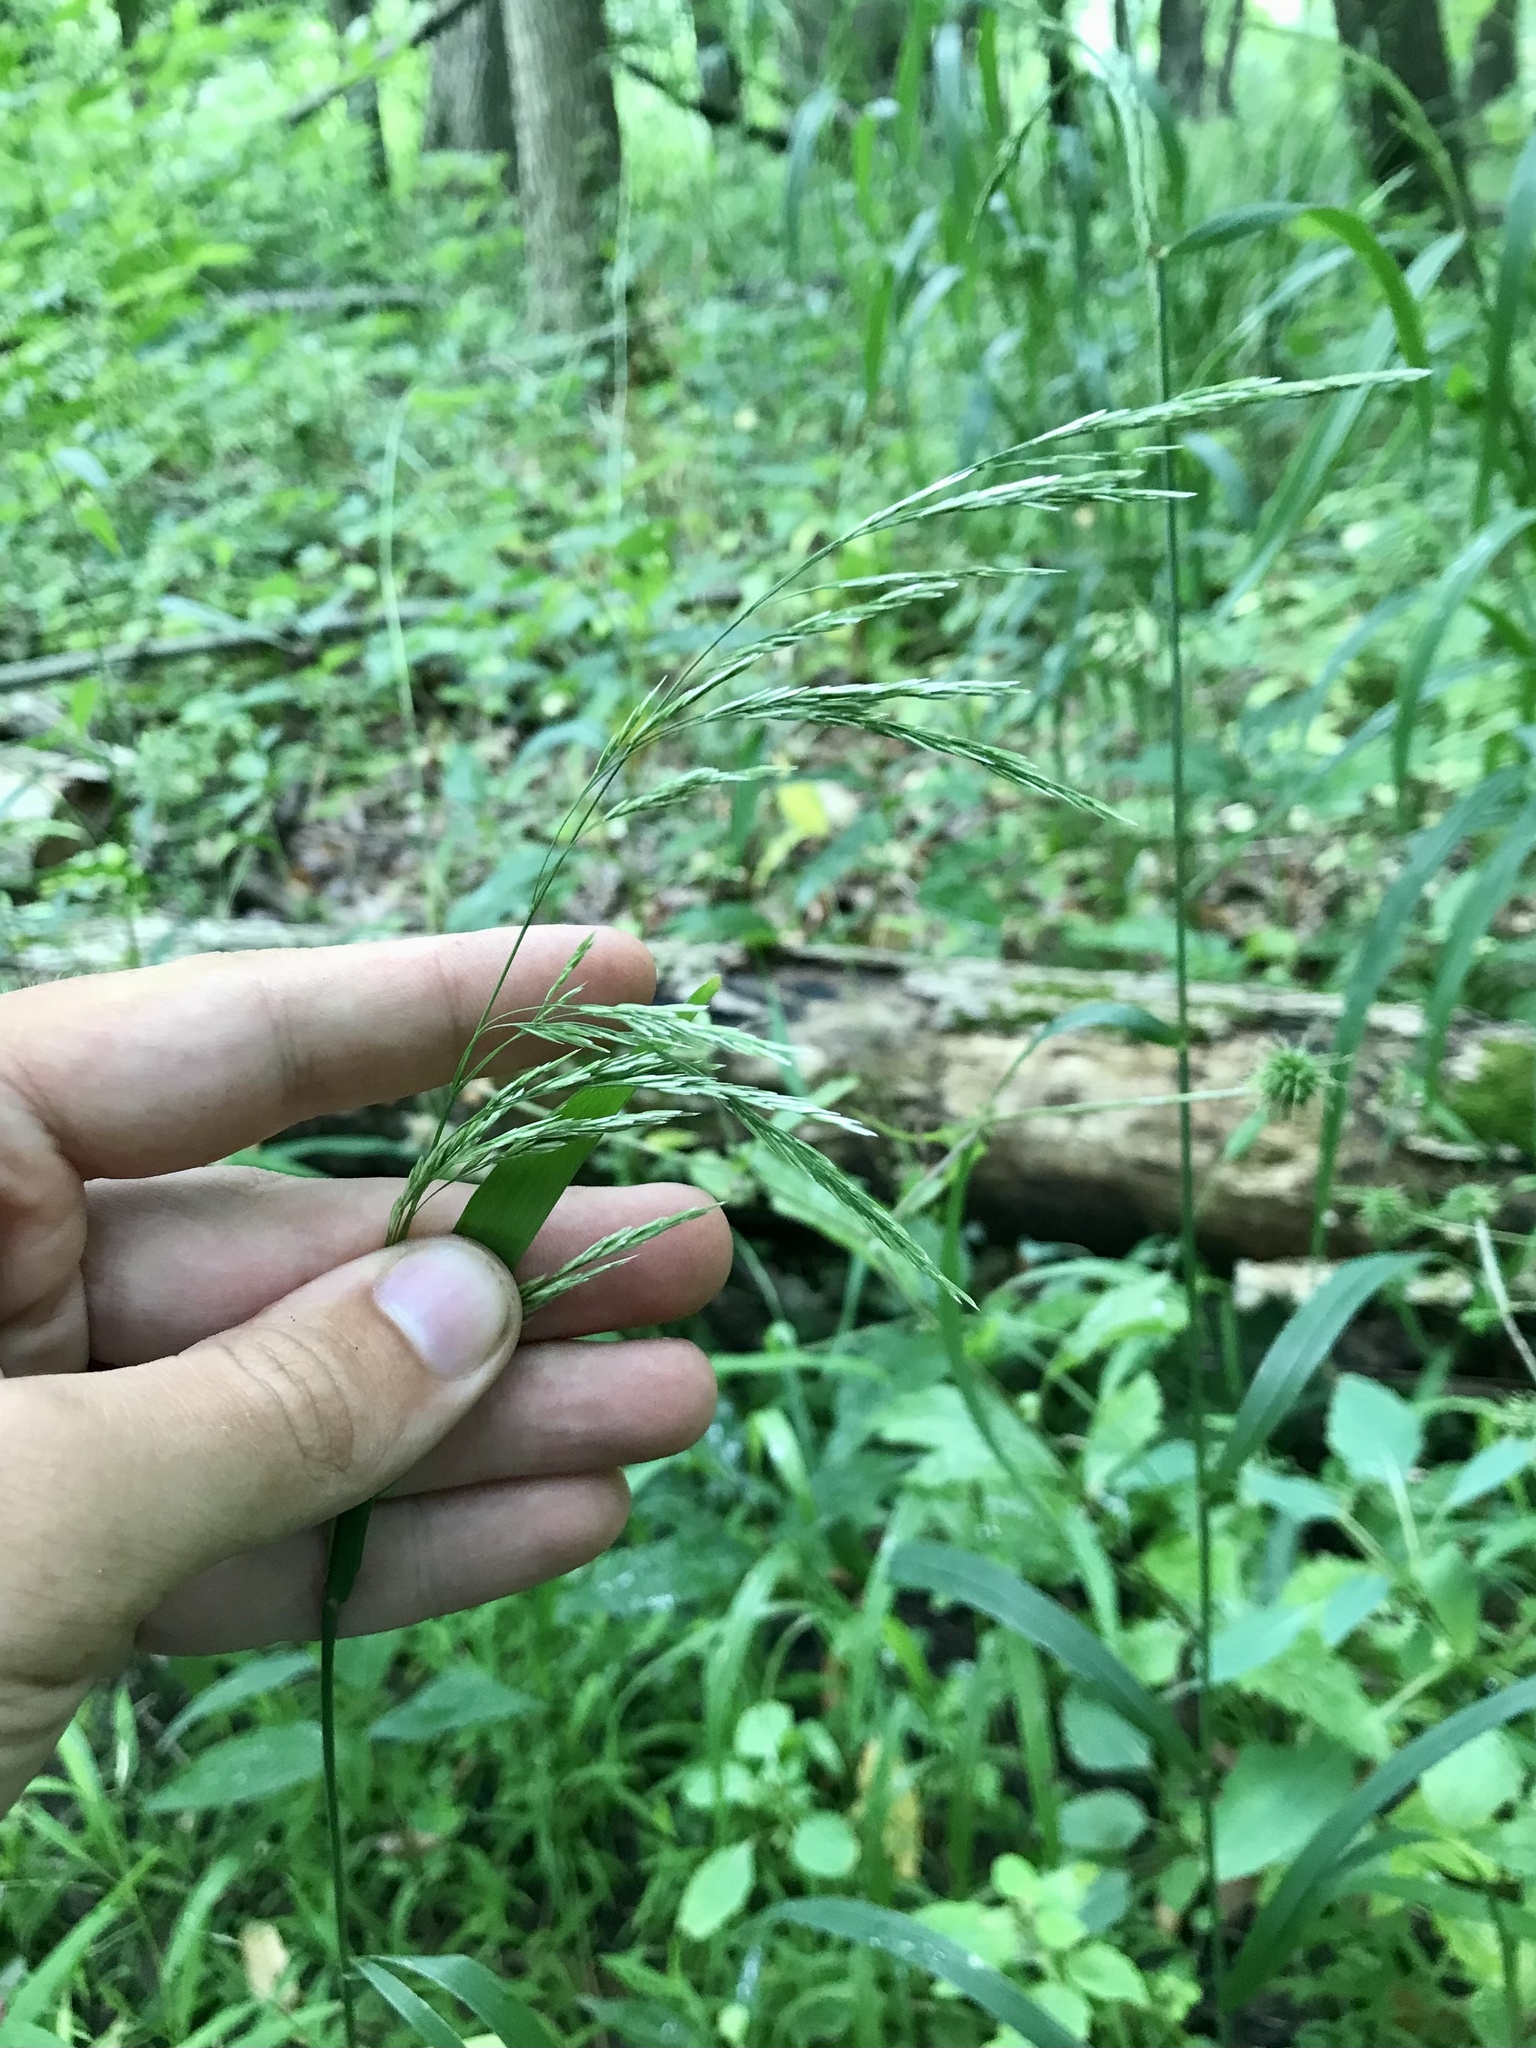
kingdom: Plantae
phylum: Tracheophyta
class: Liliopsida
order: Poales
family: Poaceae
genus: Cinna
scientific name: Cinna arundinacea
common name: Stout woodreed
